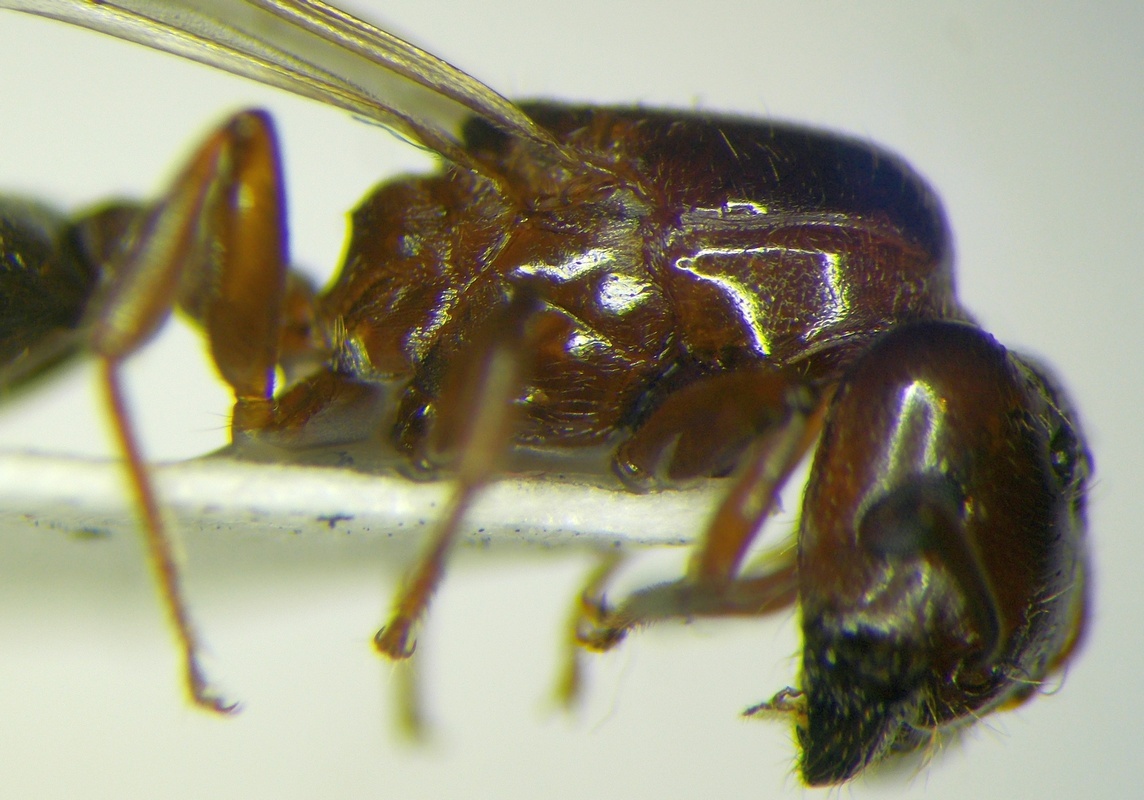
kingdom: Animalia
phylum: Arthropoda
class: Insecta
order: Hymenoptera
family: Formicidae
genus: Crematogaster
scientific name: Crematogaster lorteti
